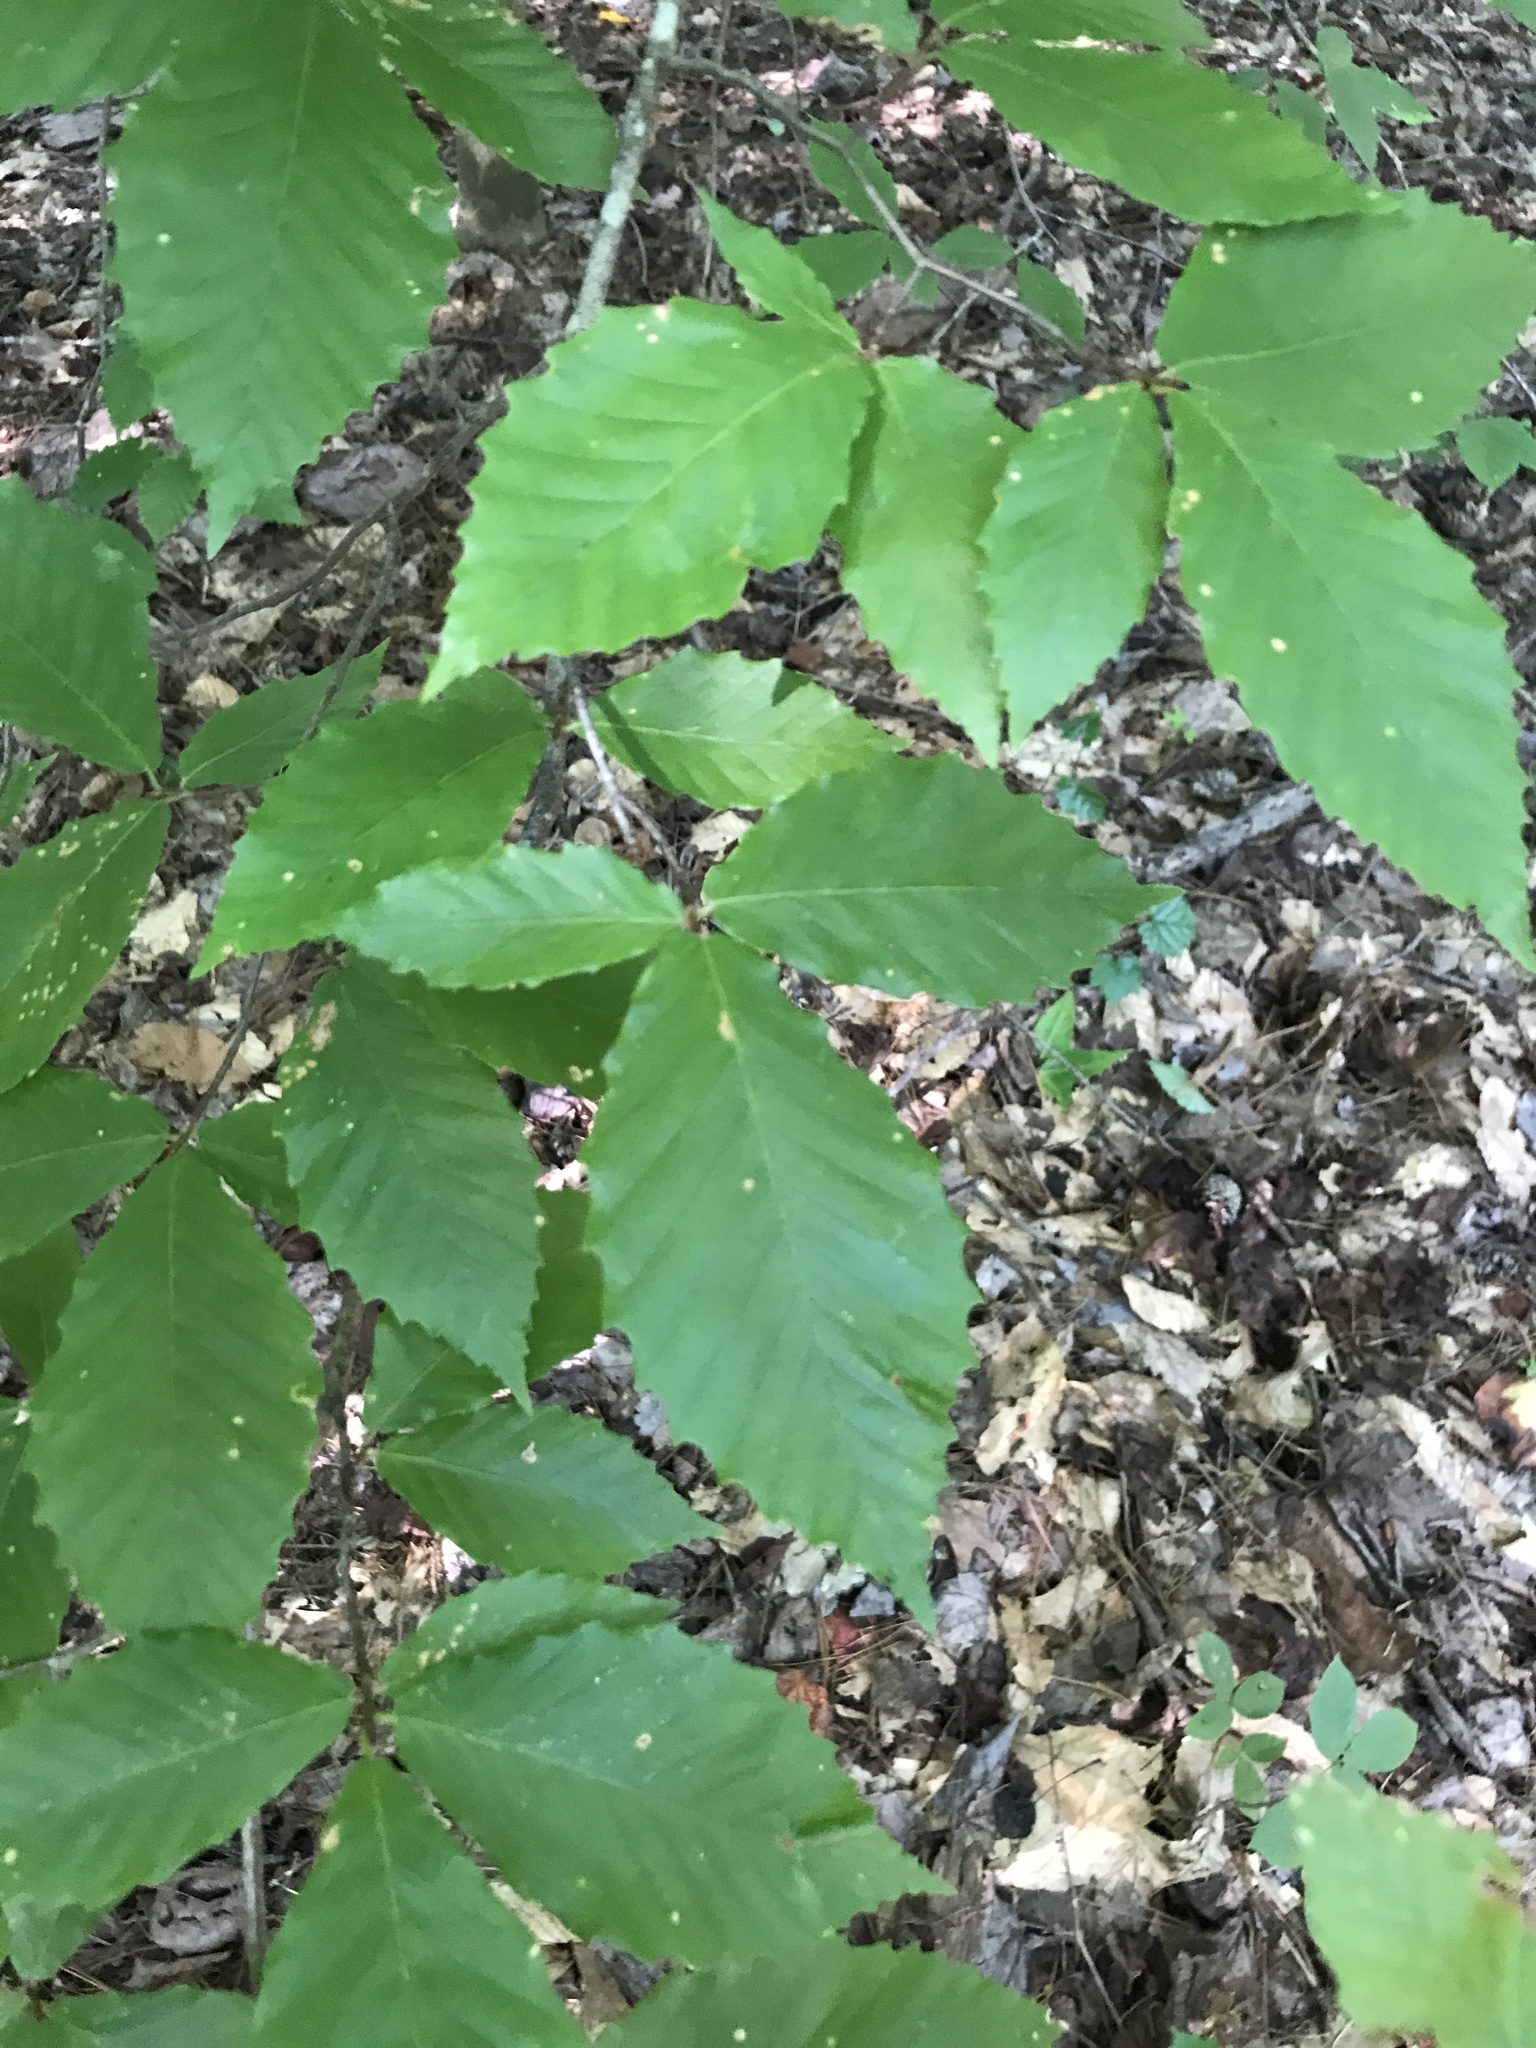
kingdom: Plantae
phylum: Tracheophyta
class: Magnoliopsida
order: Fagales
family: Fagaceae
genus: Fagus
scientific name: Fagus grandifolia
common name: American beech
